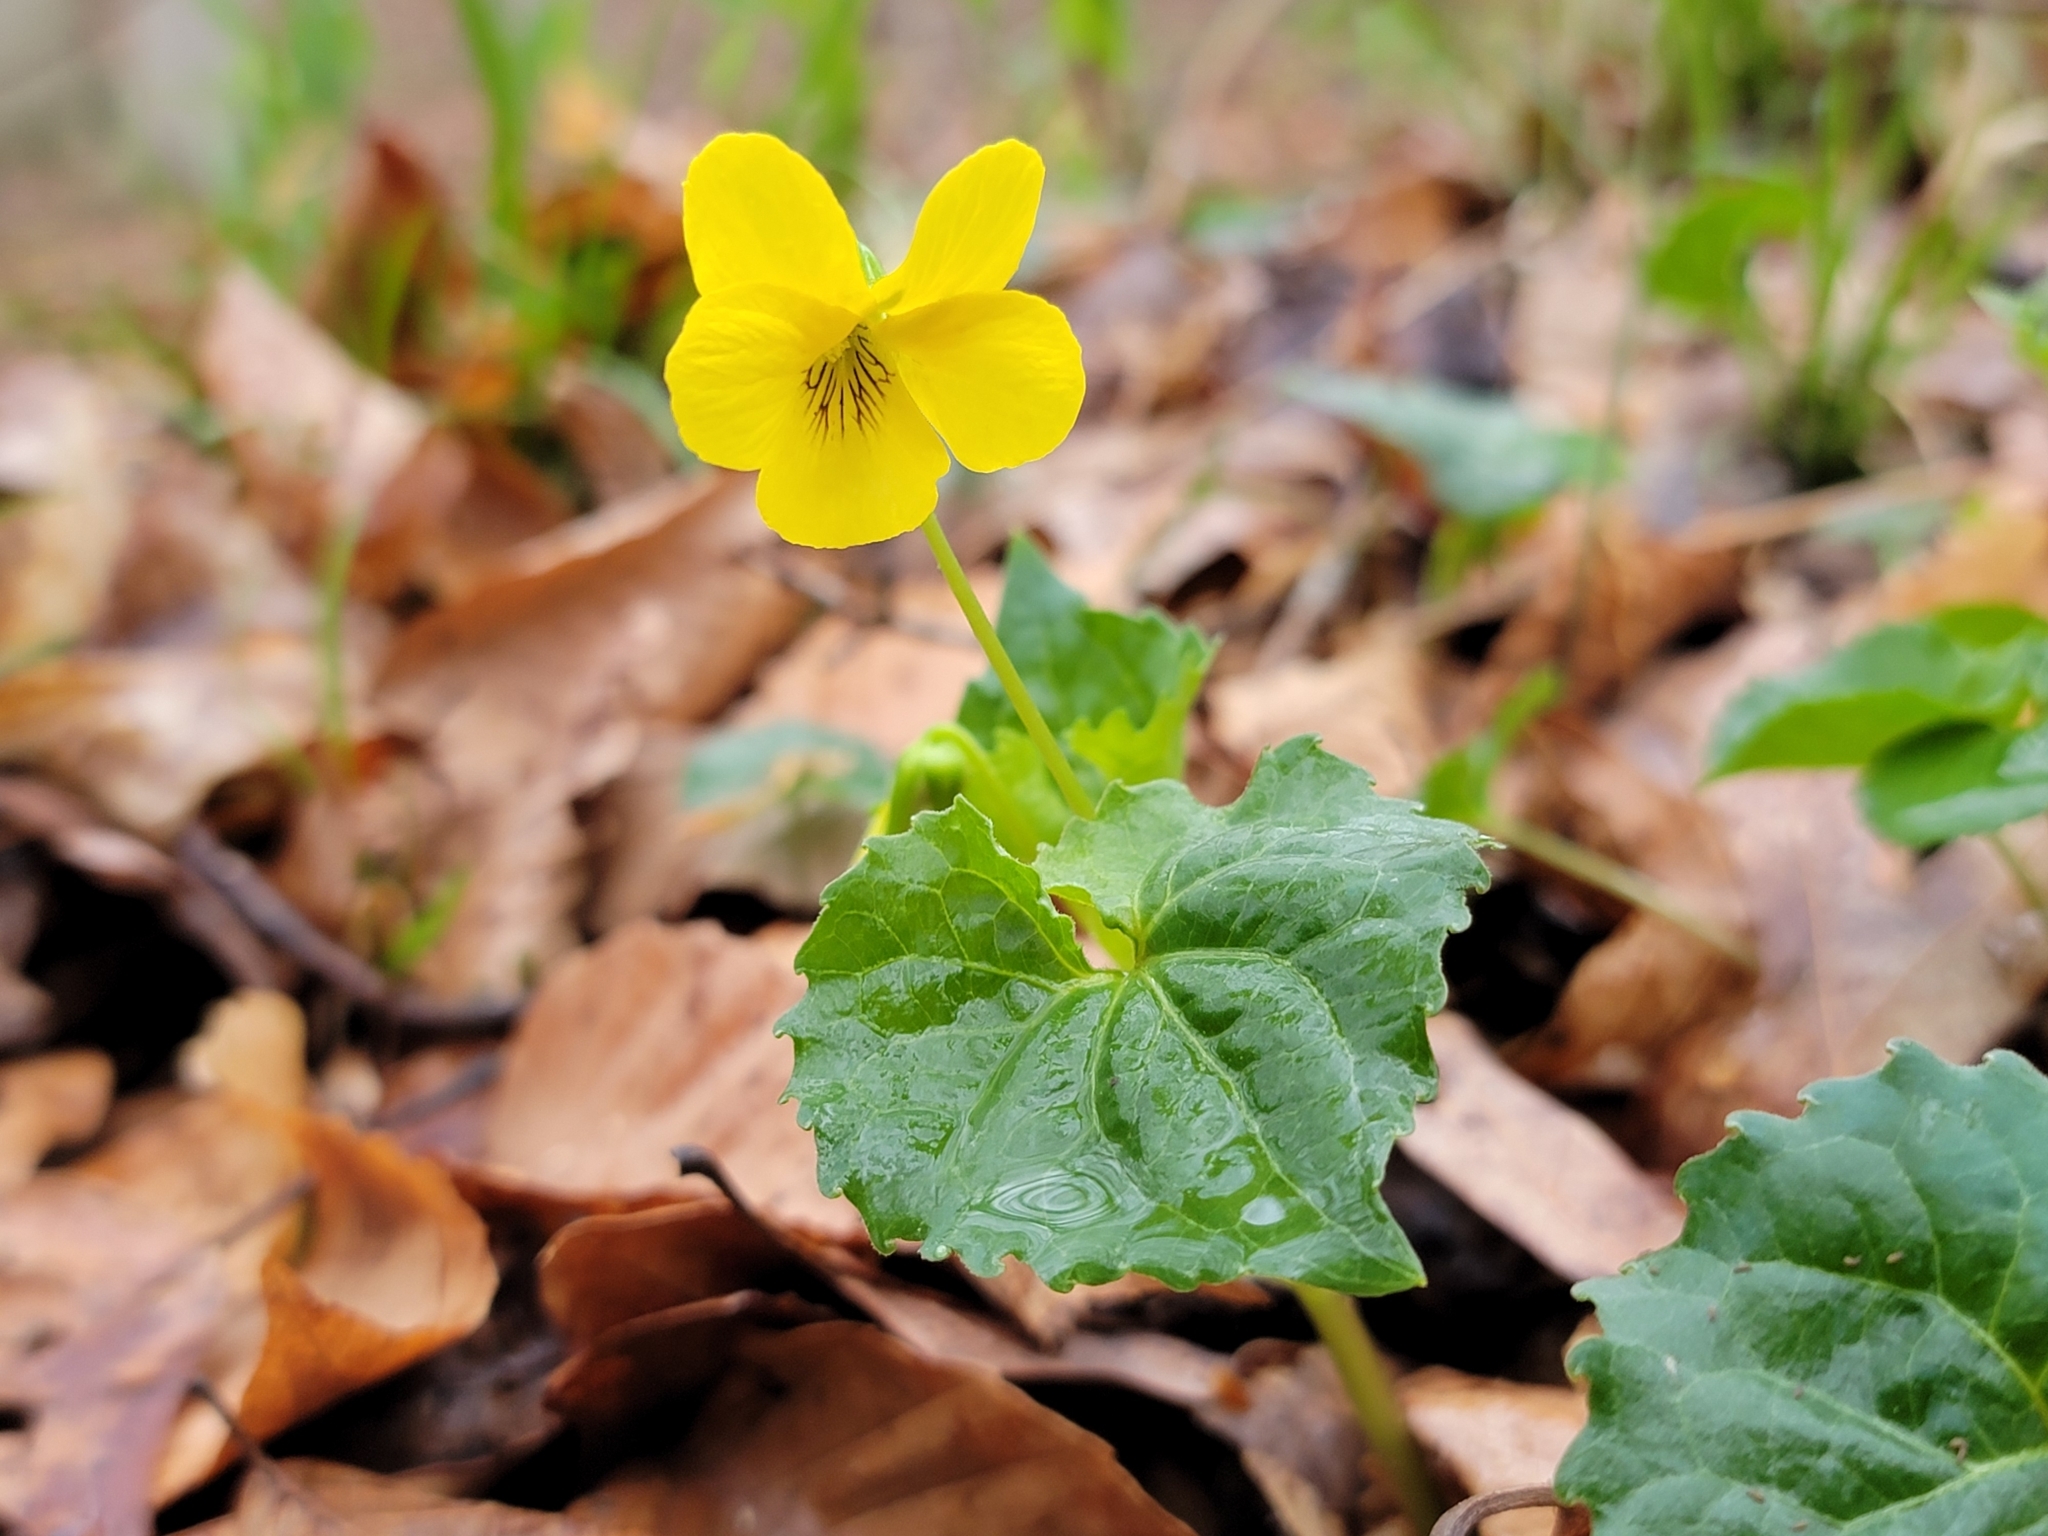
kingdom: Plantae
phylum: Tracheophyta
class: Magnoliopsida
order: Malpighiales
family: Violaceae
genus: Viola
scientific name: Viola eriocarpa
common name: Smooth yellow violet
